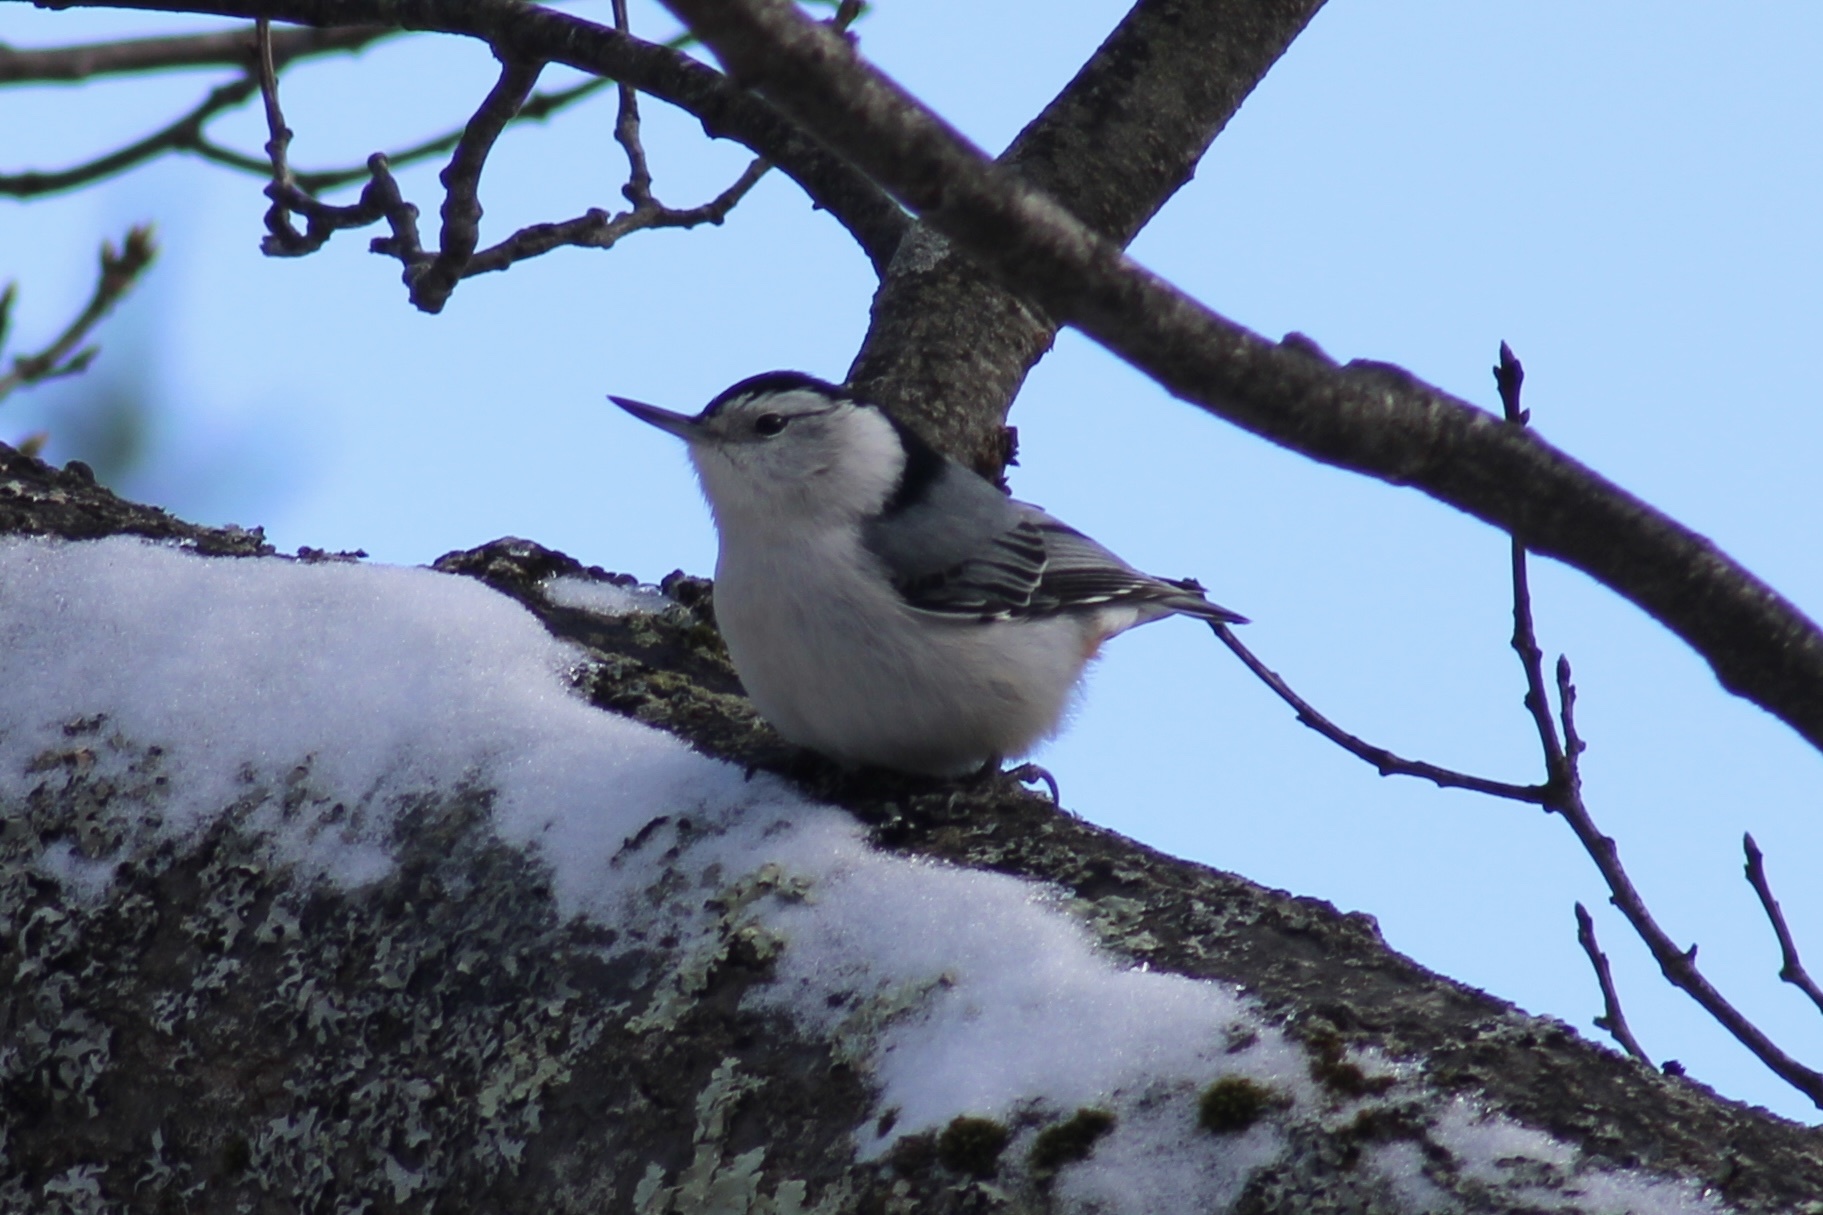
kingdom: Animalia
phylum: Chordata
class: Aves
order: Passeriformes
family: Sittidae
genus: Sitta
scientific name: Sitta carolinensis
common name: White-breasted nuthatch
